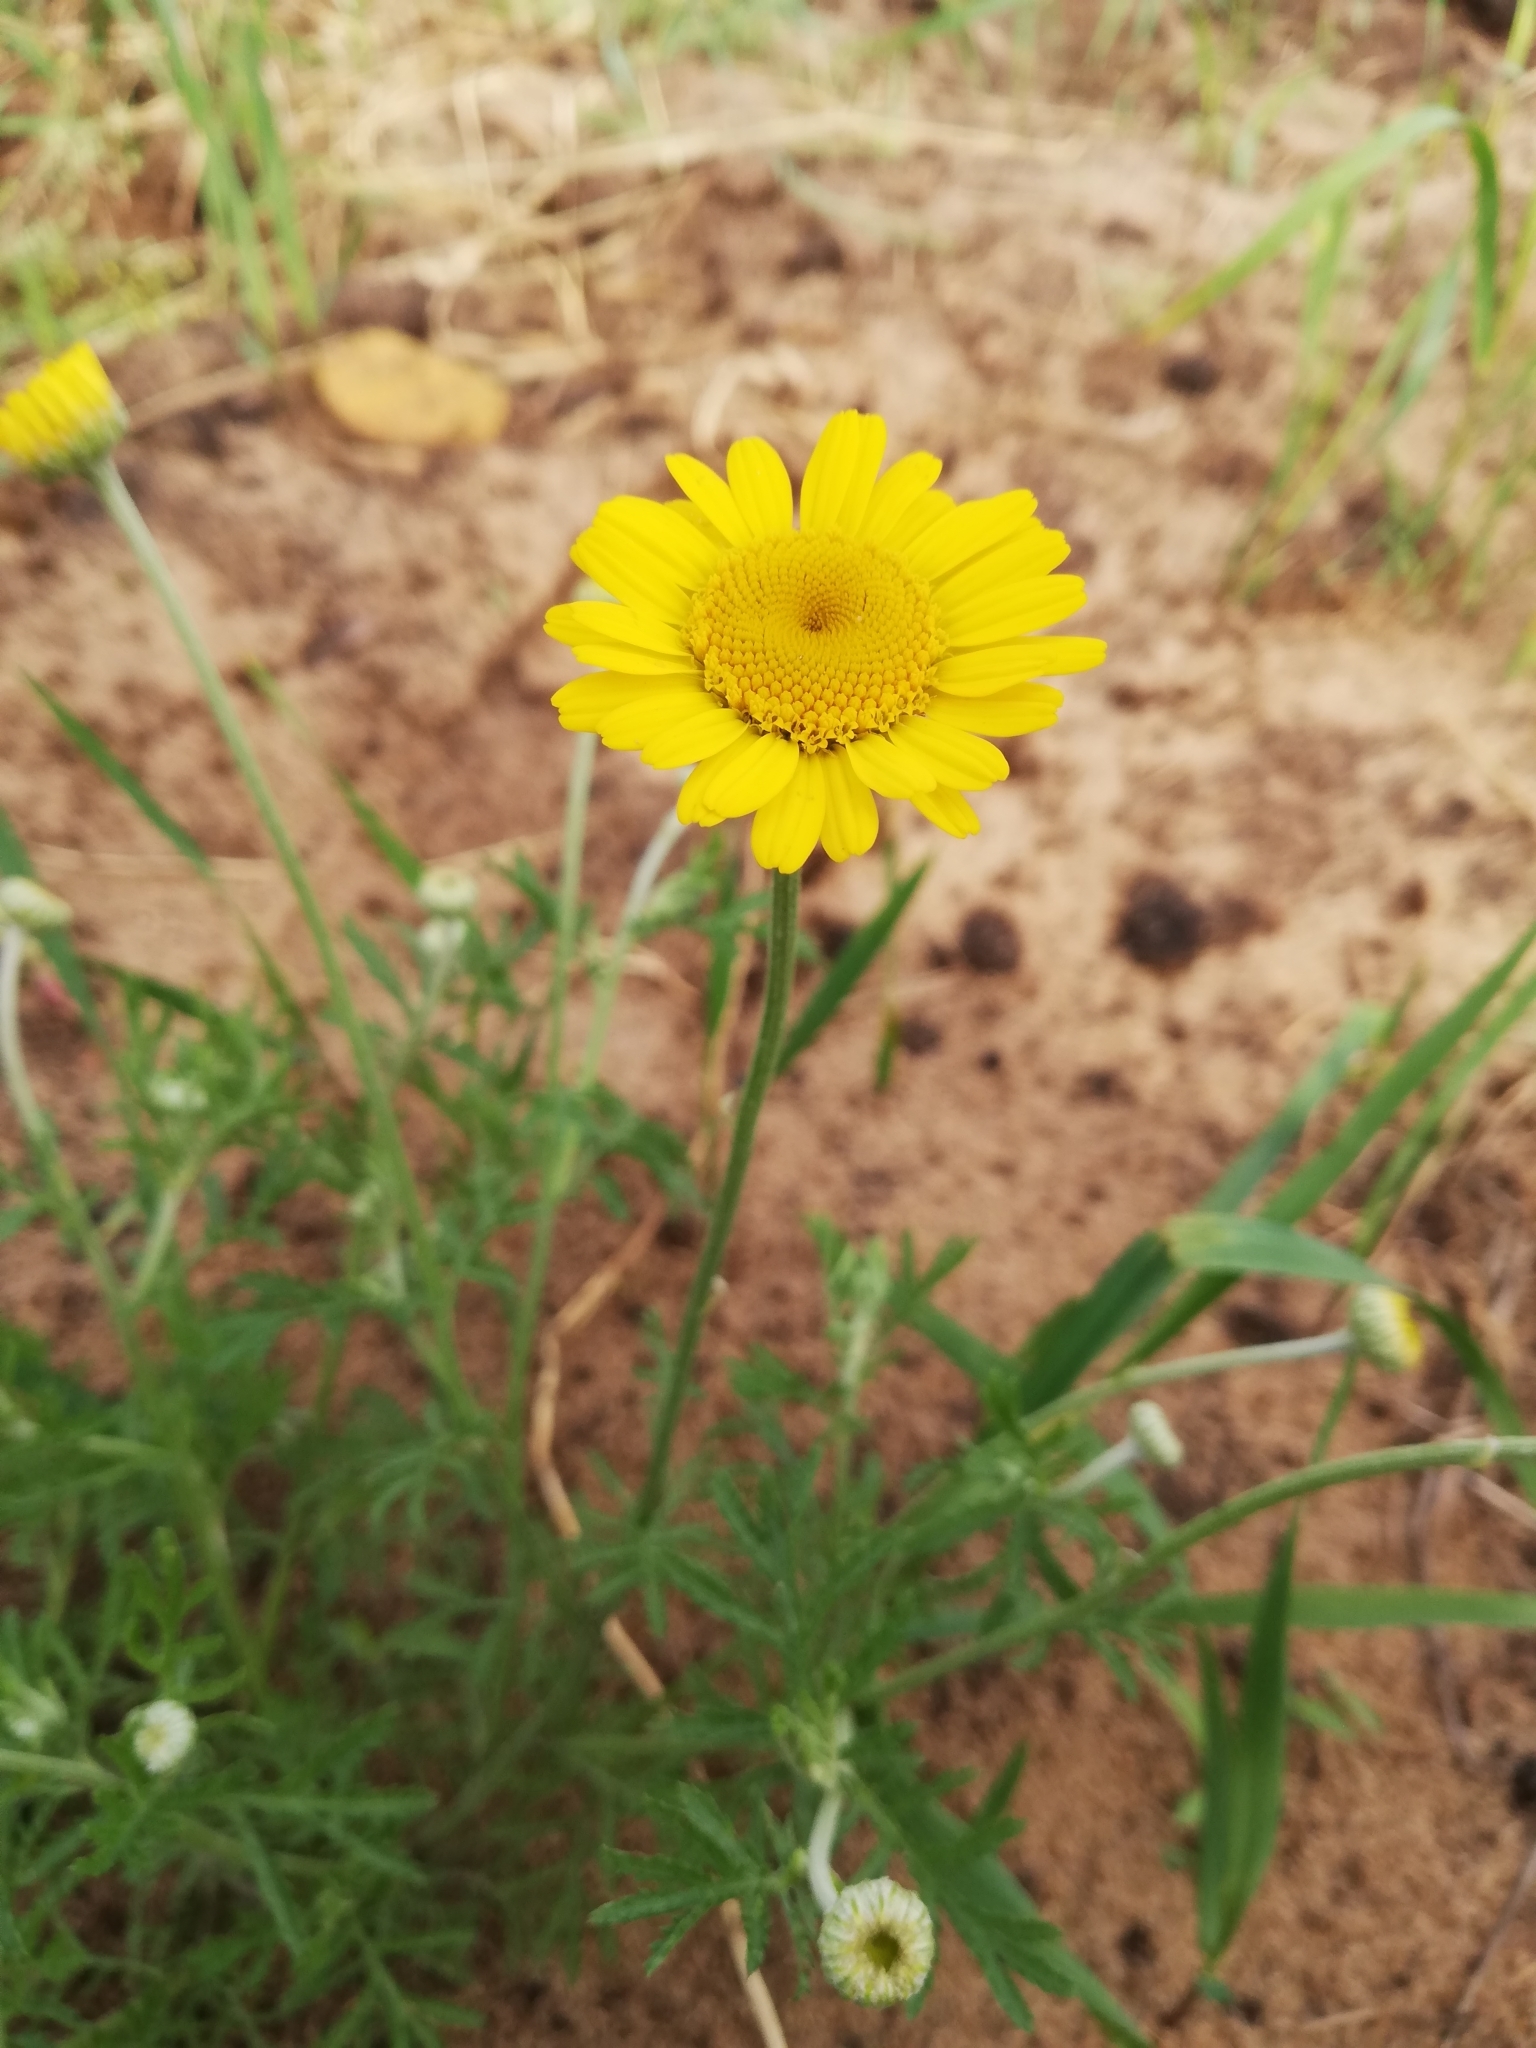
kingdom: Plantae
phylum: Tracheophyta
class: Magnoliopsida
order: Asterales
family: Asteraceae
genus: Cota
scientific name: Cota tinctoria
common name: Golden chamomile
